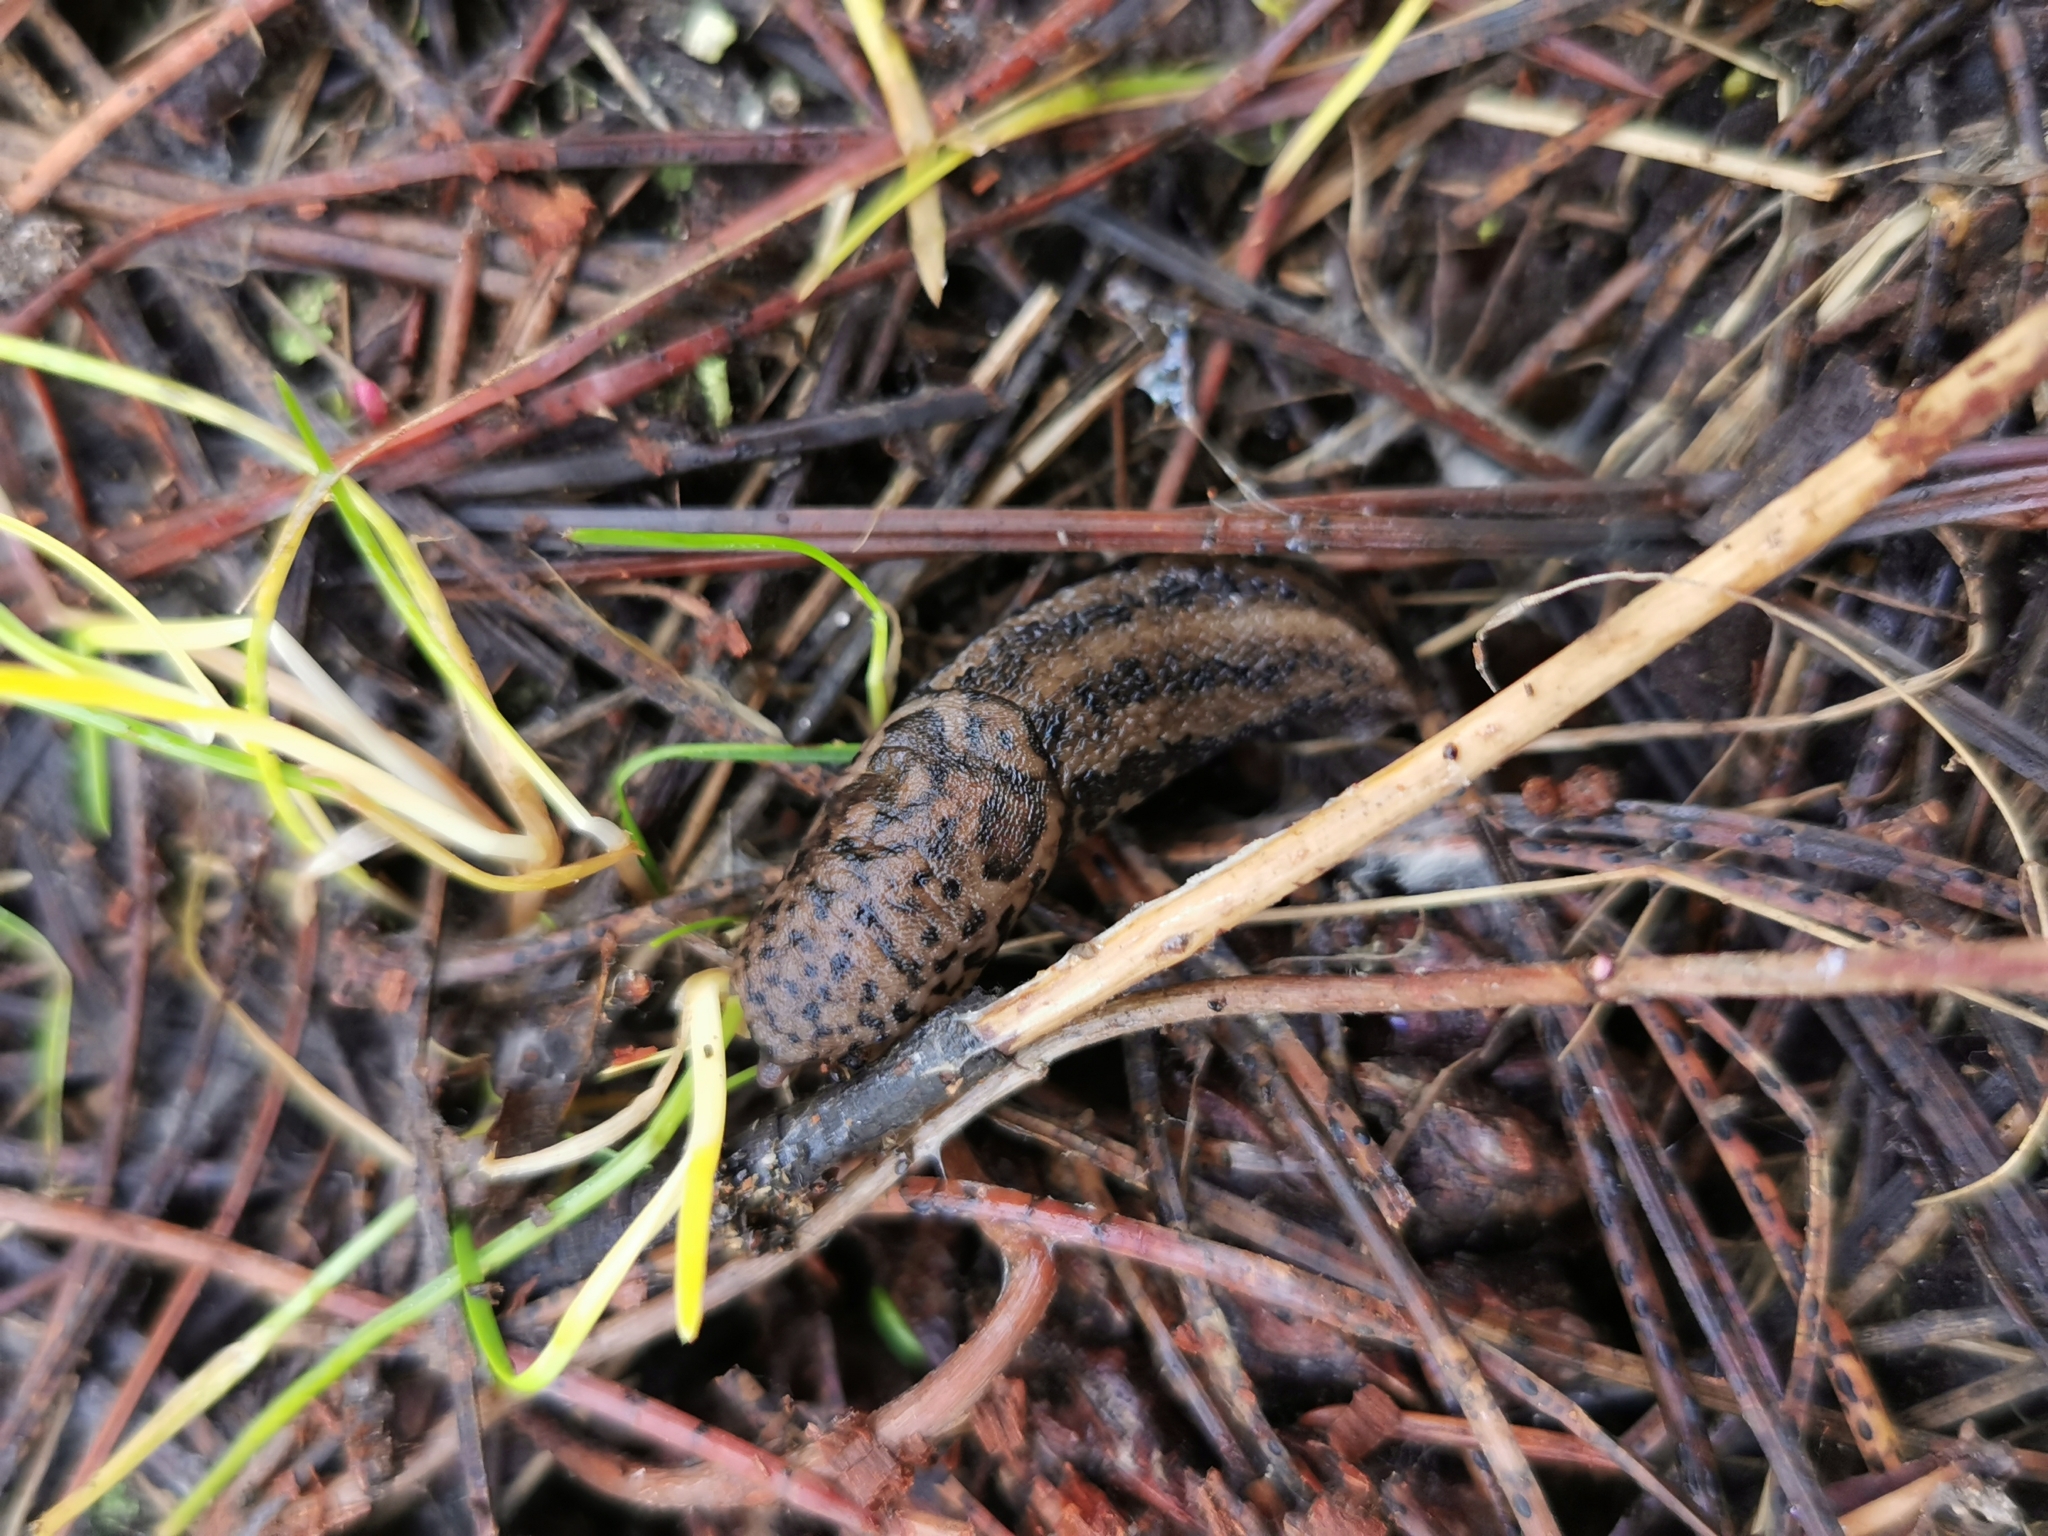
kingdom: Animalia
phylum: Mollusca
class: Gastropoda
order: Stylommatophora
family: Limacidae
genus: Limax
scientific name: Limax maximus
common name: Great grey slug
